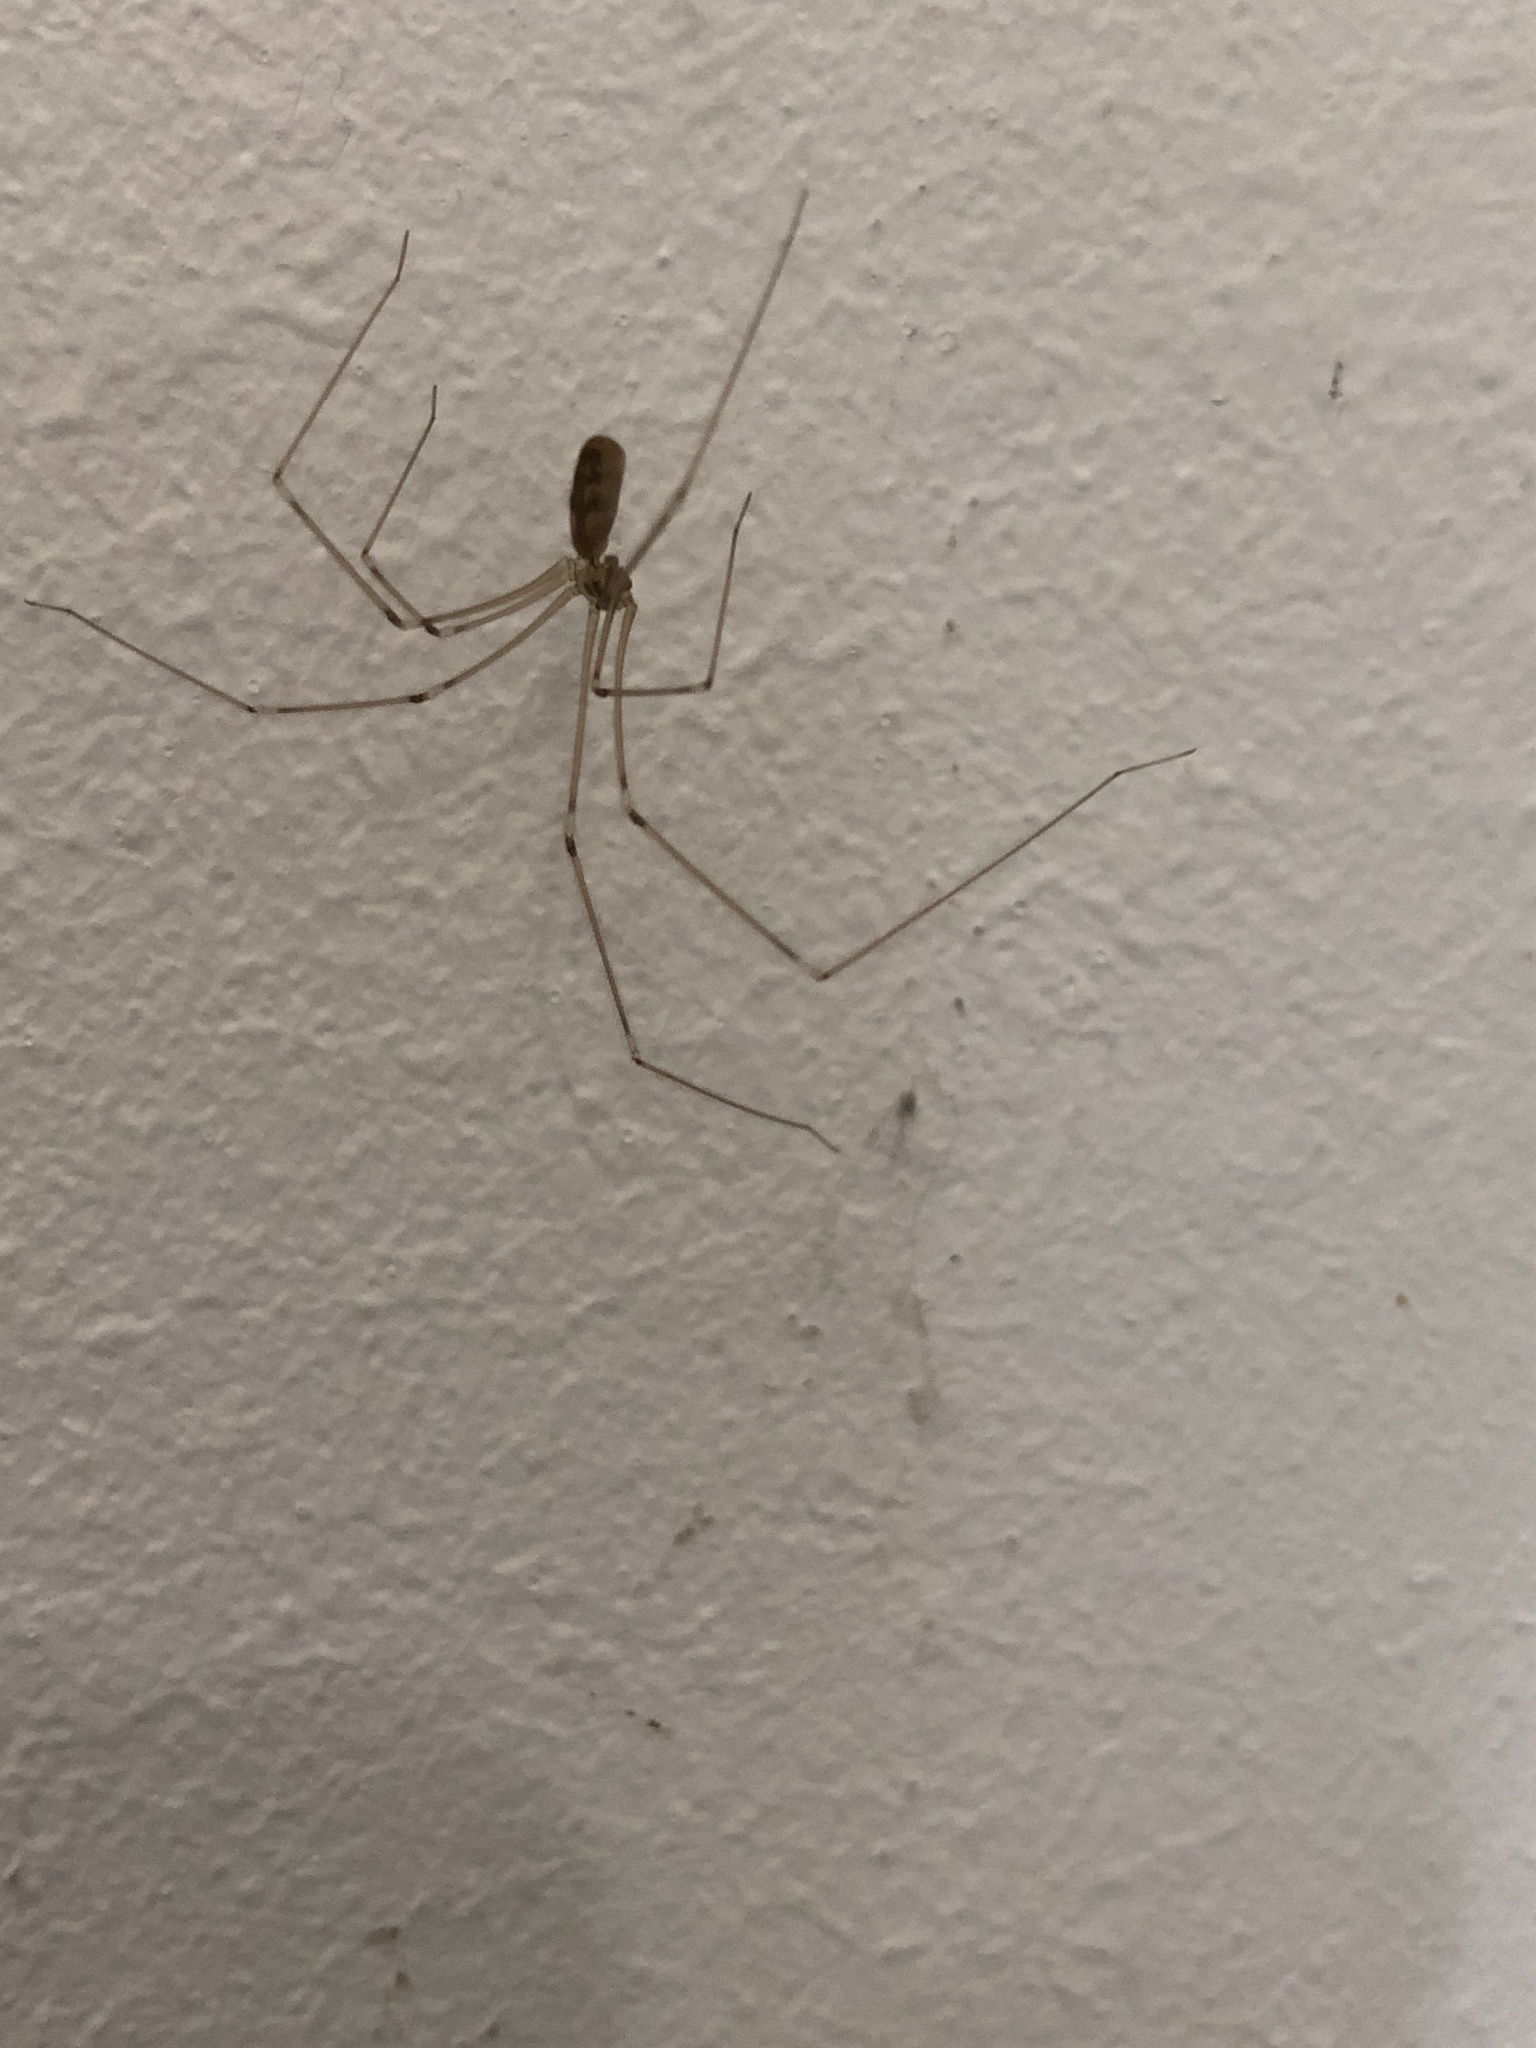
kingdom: Animalia
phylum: Arthropoda
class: Arachnida
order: Araneae
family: Pholcidae
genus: Pholcus
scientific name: Pholcus phalangioides
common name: Longbodied cellar spider
